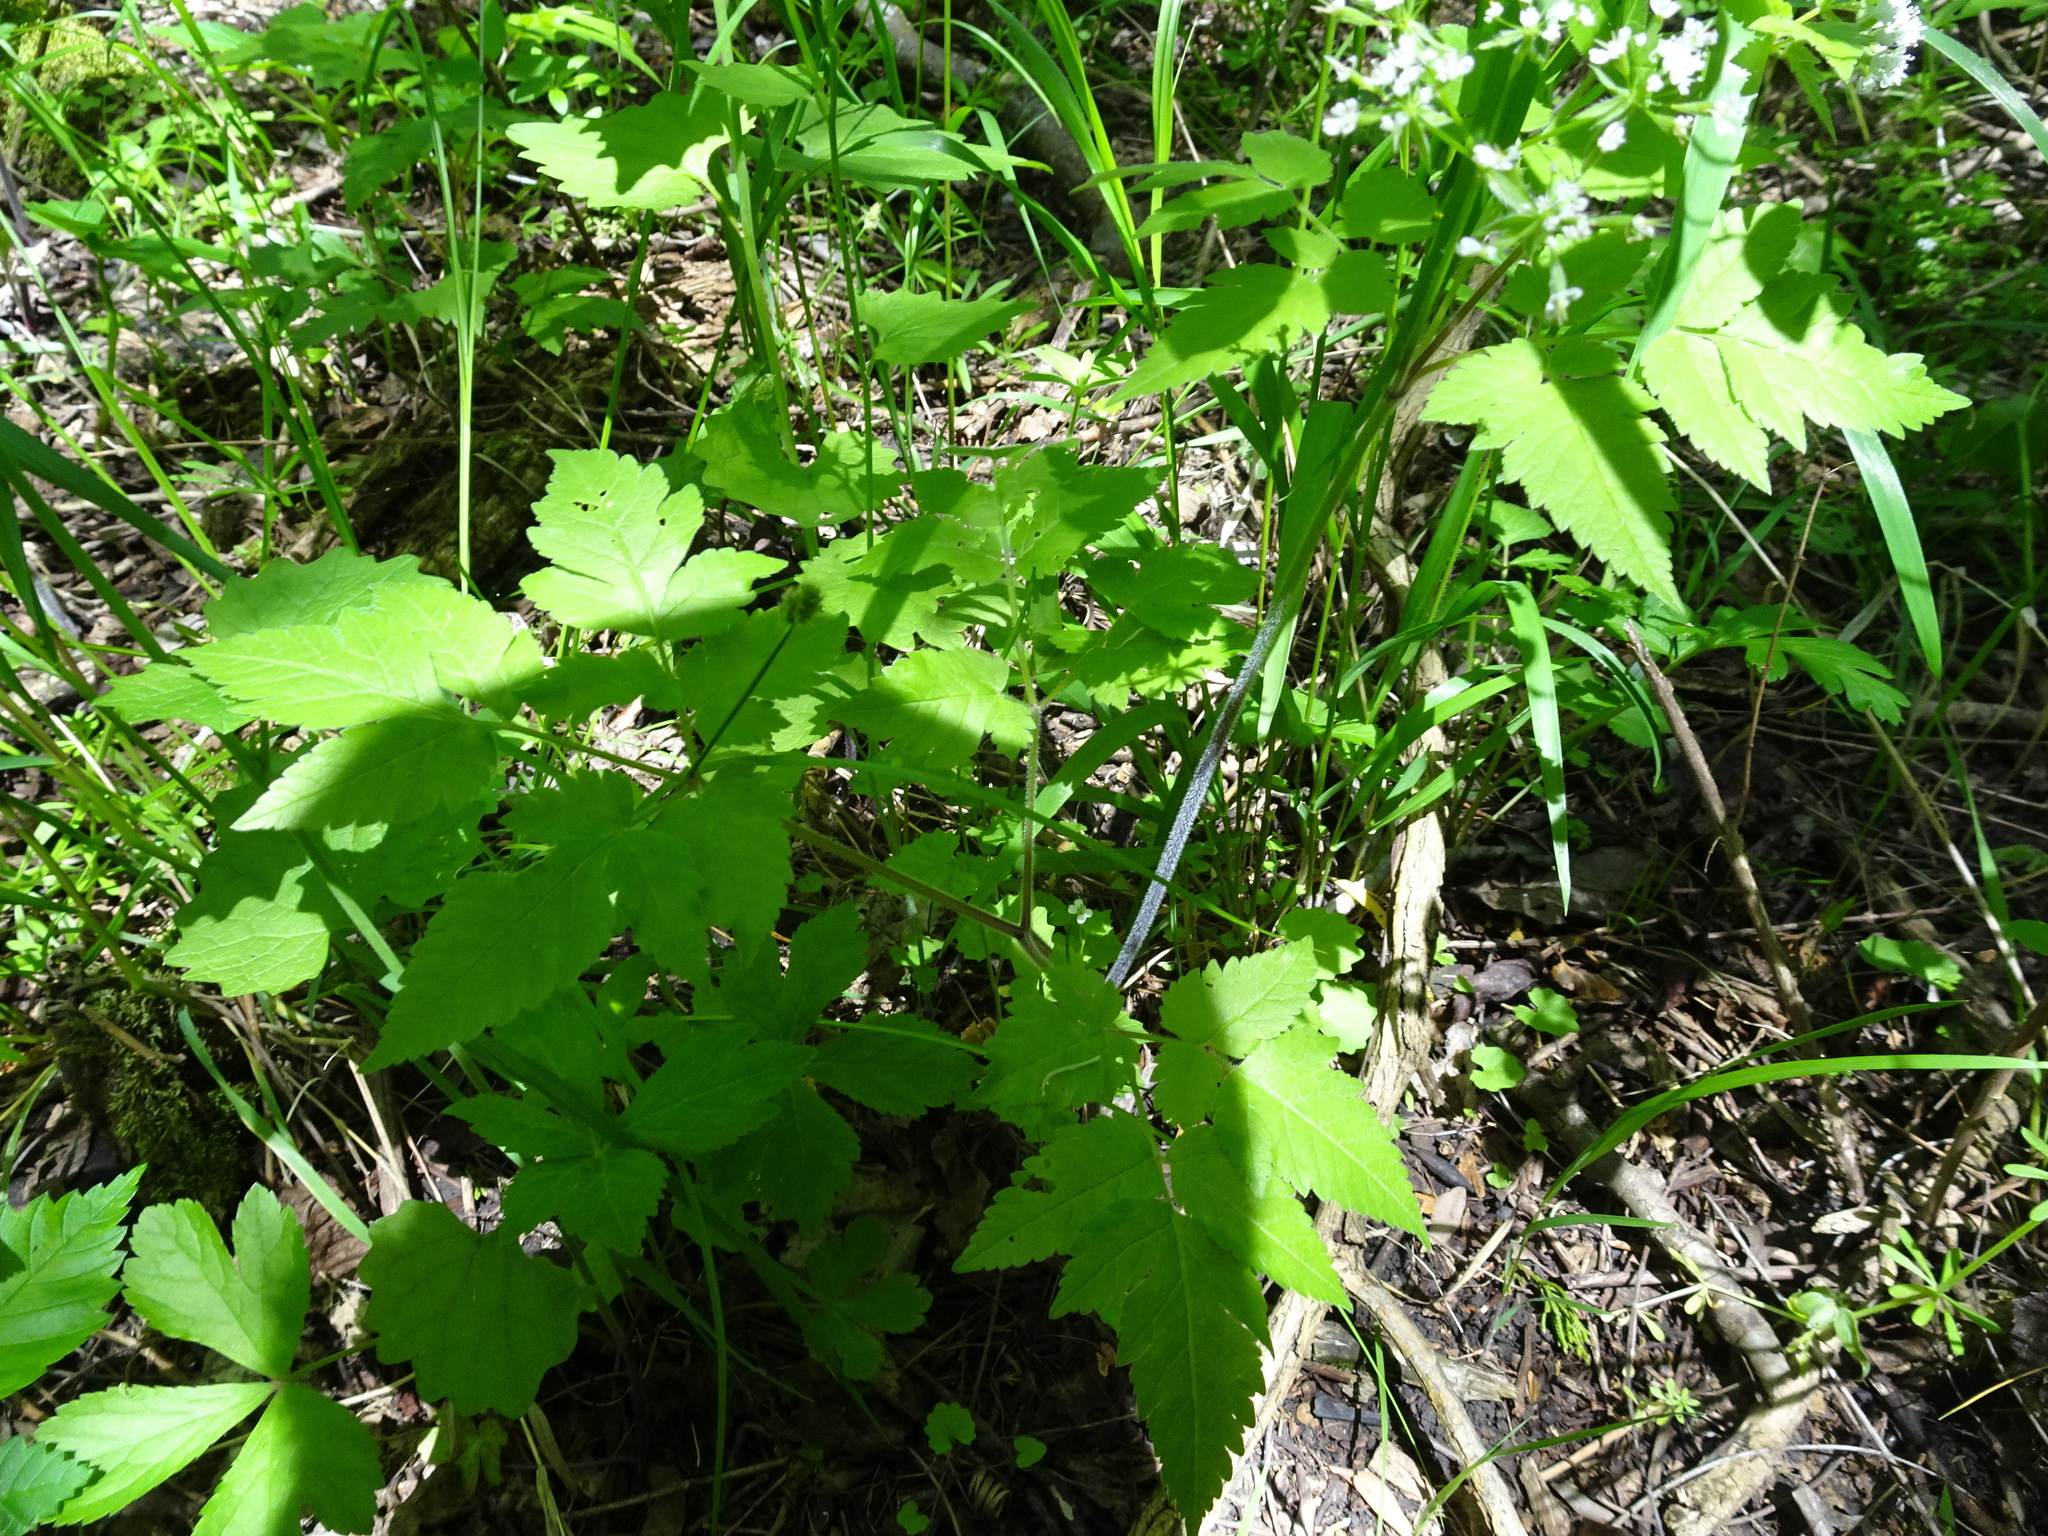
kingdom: Plantae
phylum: Tracheophyta
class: Magnoliopsida
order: Apiales
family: Apiaceae
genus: Osmorhiza
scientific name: Osmorhiza longistylis
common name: Smooth sweet cicely
